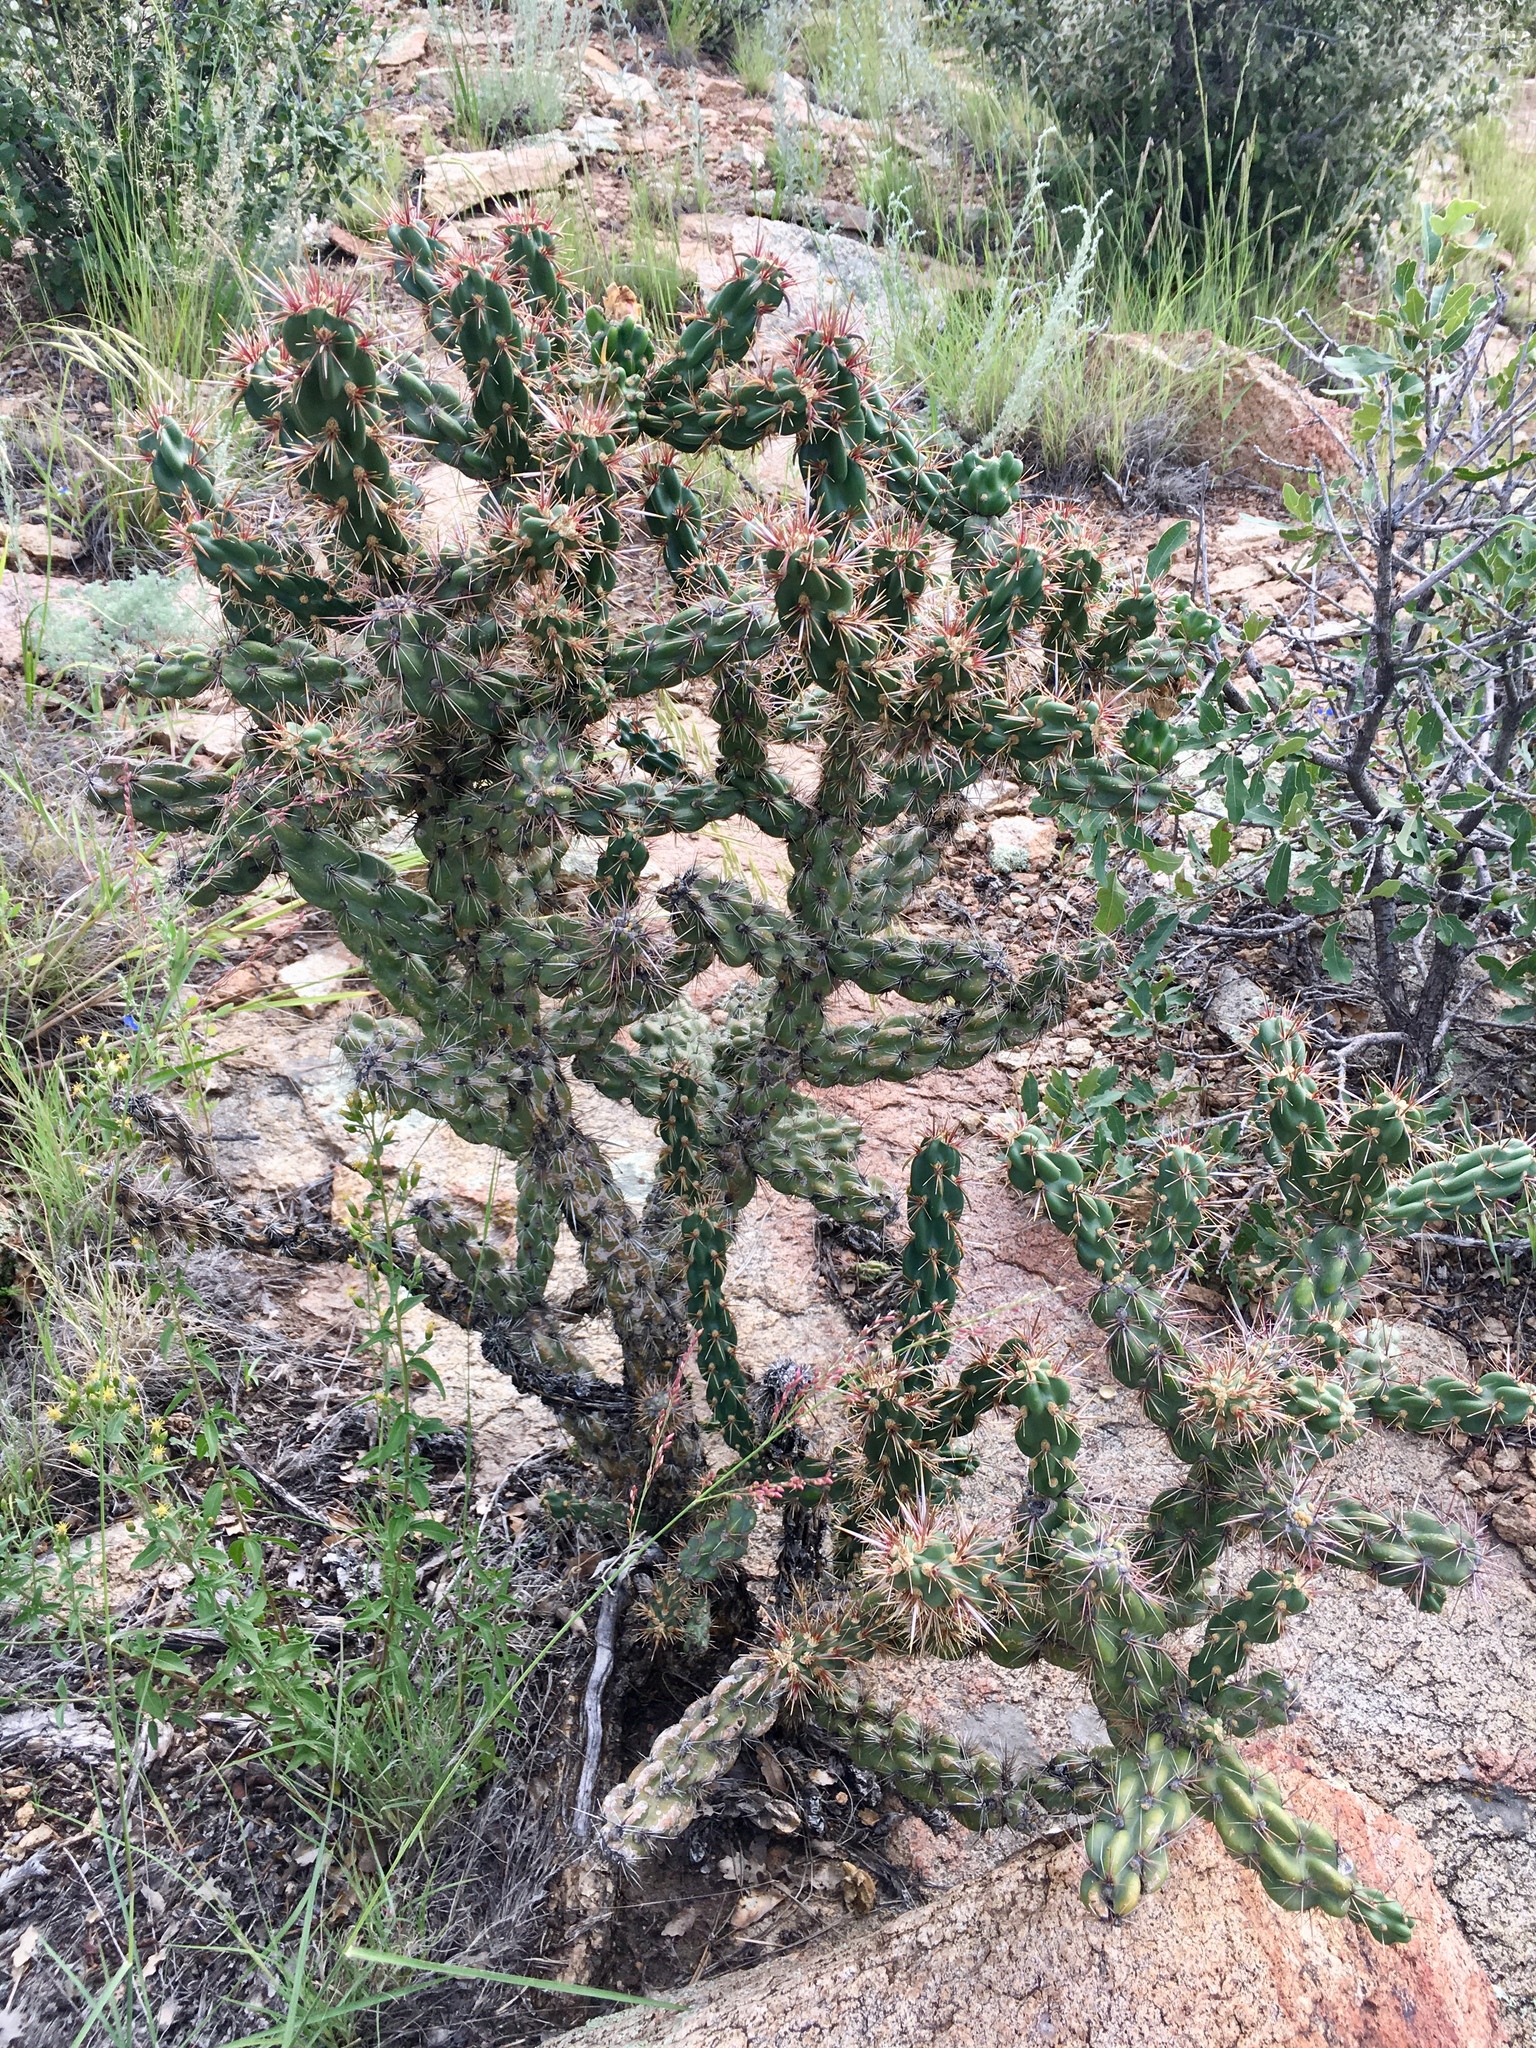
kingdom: Plantae
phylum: Tracheophyta
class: Magnoliopsida
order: Caryophyllales
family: Cactaceae
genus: Cylindropuntia
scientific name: Cylindropuntia imbricata
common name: Candelabrum cactus
